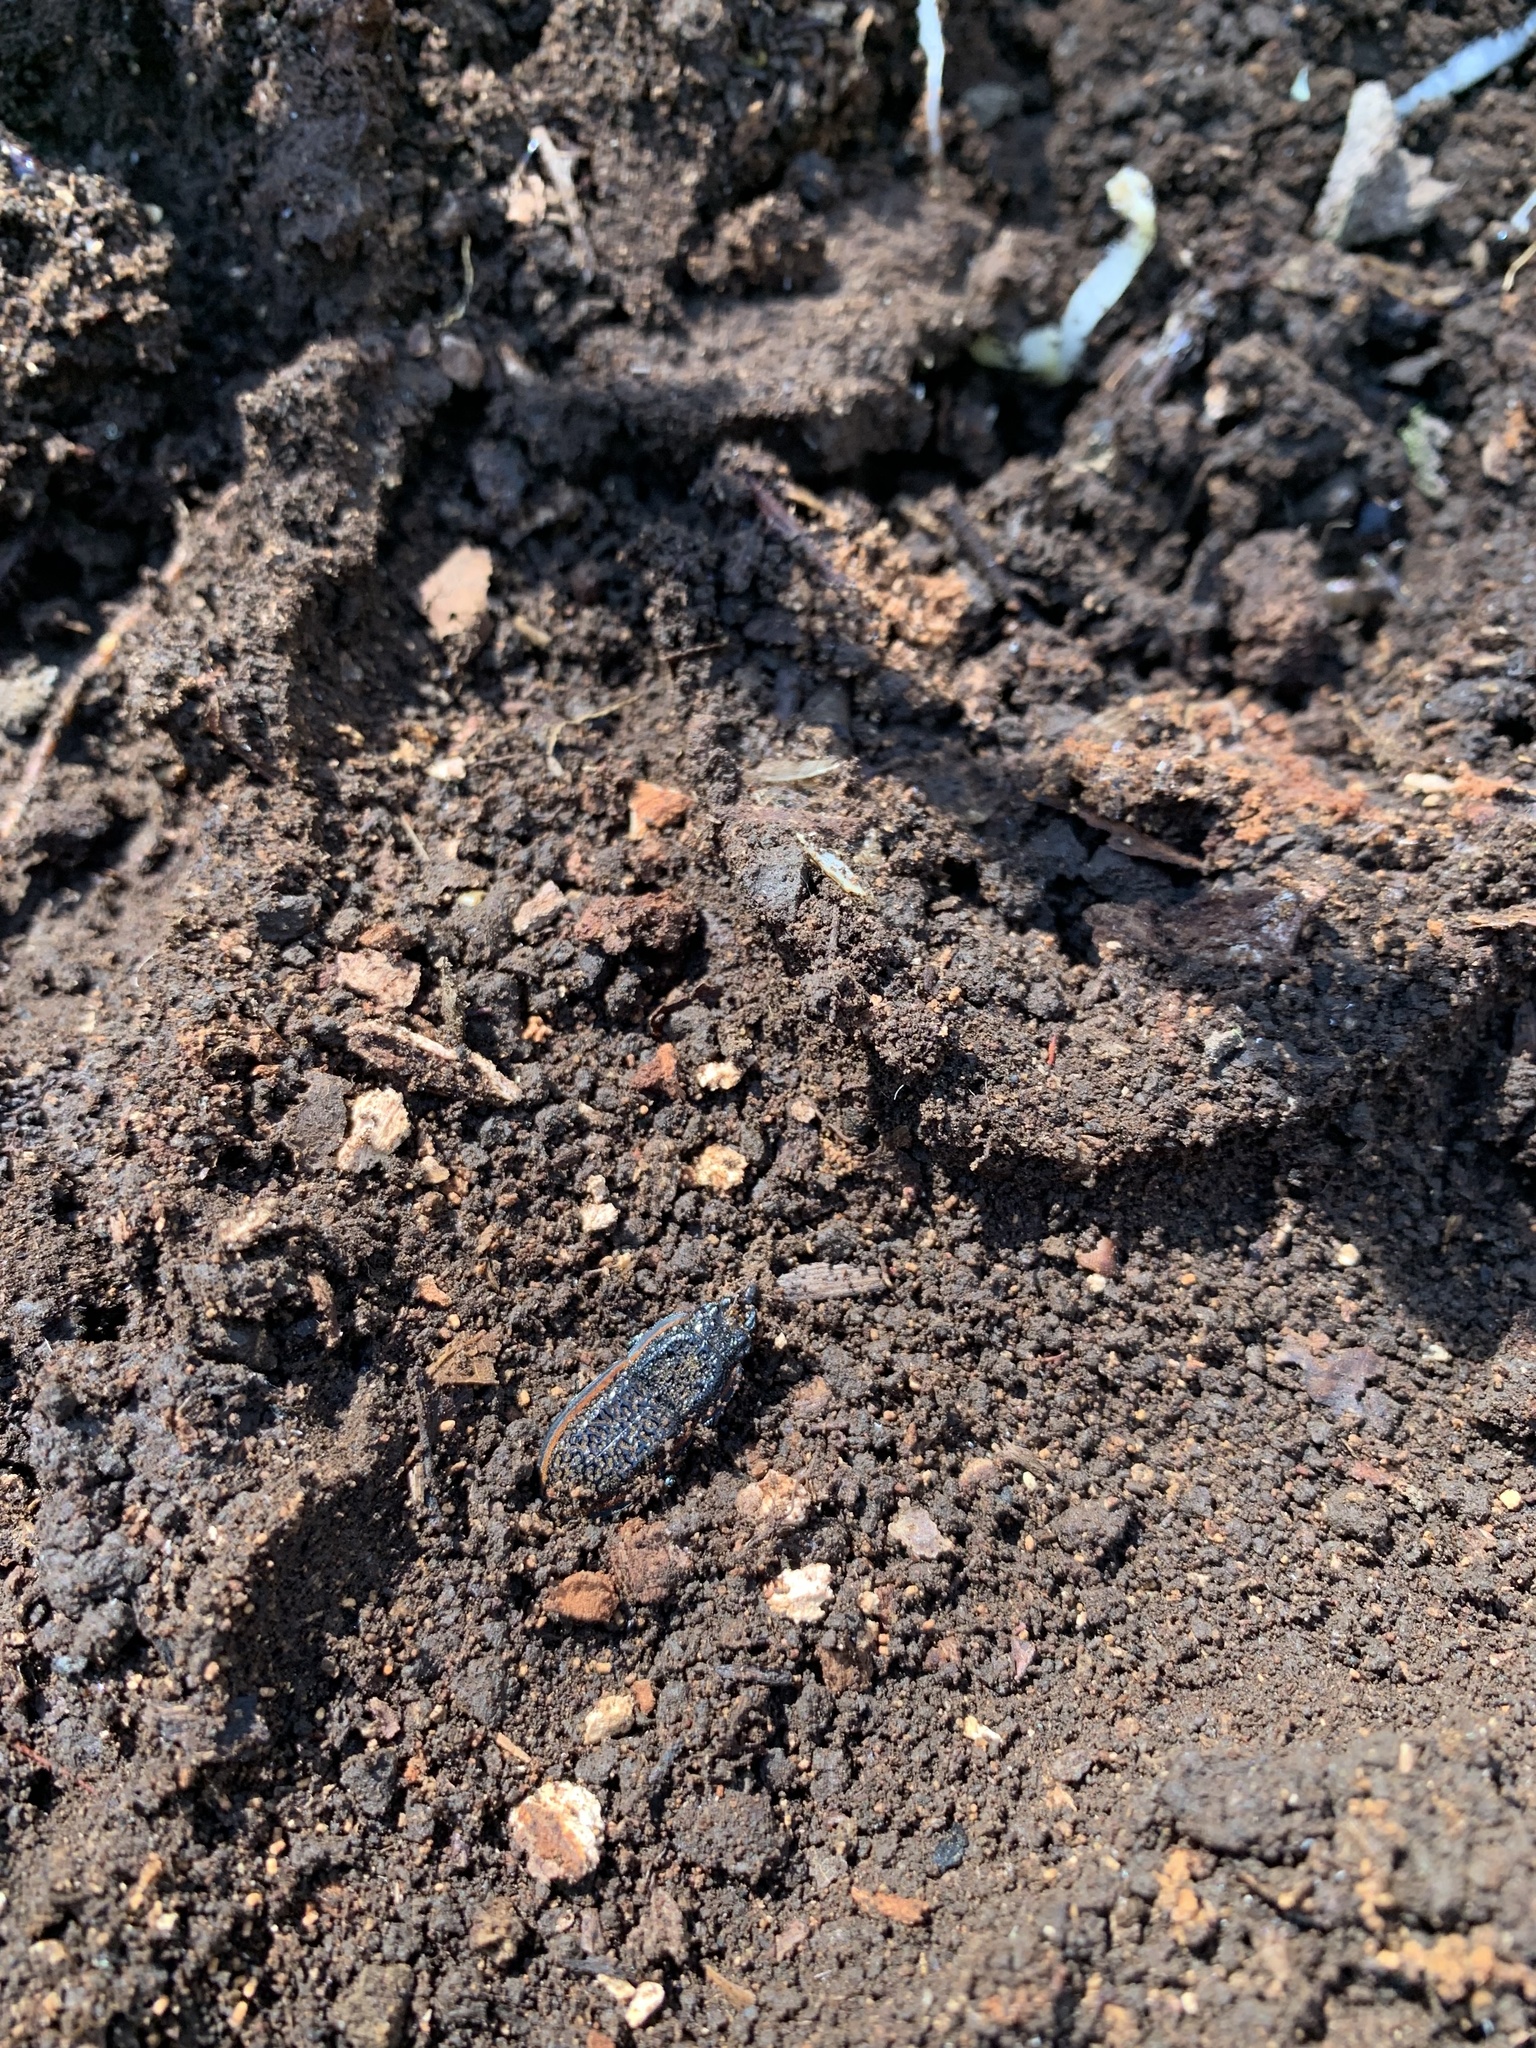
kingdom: Animalia
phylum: Arthropoda
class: Insecta
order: Coleoptera
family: Lucanidae
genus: Erichius
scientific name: Erichius caelatus
